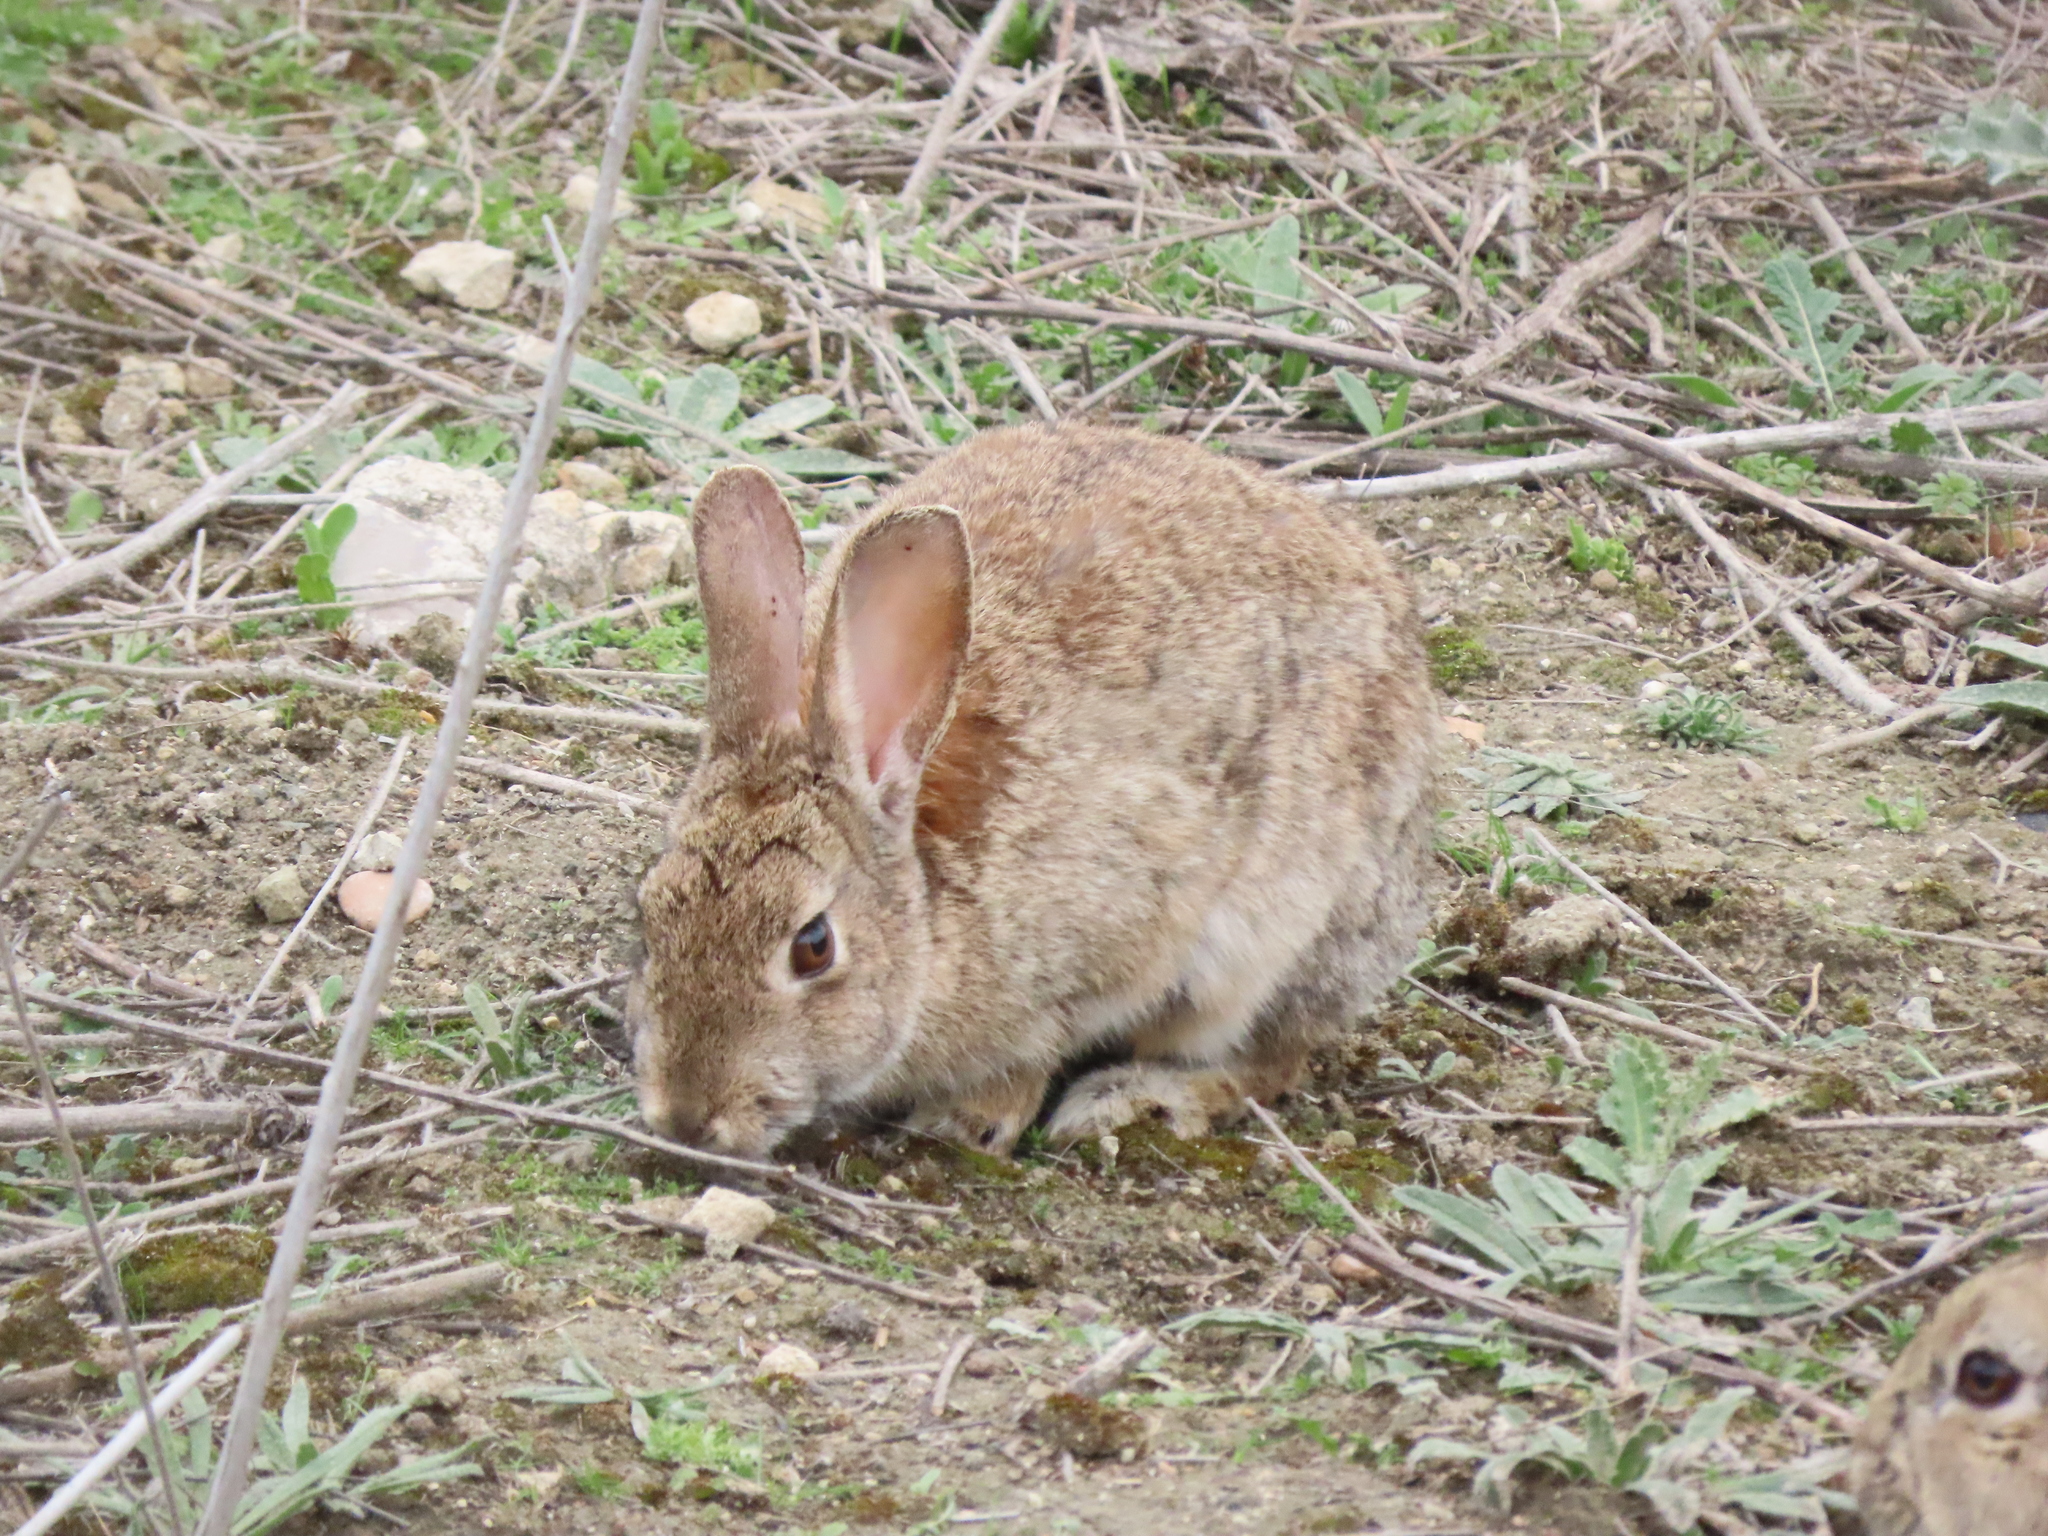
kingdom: Animalia
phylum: Chordata
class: Mammalia
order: Lagomorpha
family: Leporidae
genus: Oryctolagus
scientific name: Oryctolagus cuniculus
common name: European rabbit
